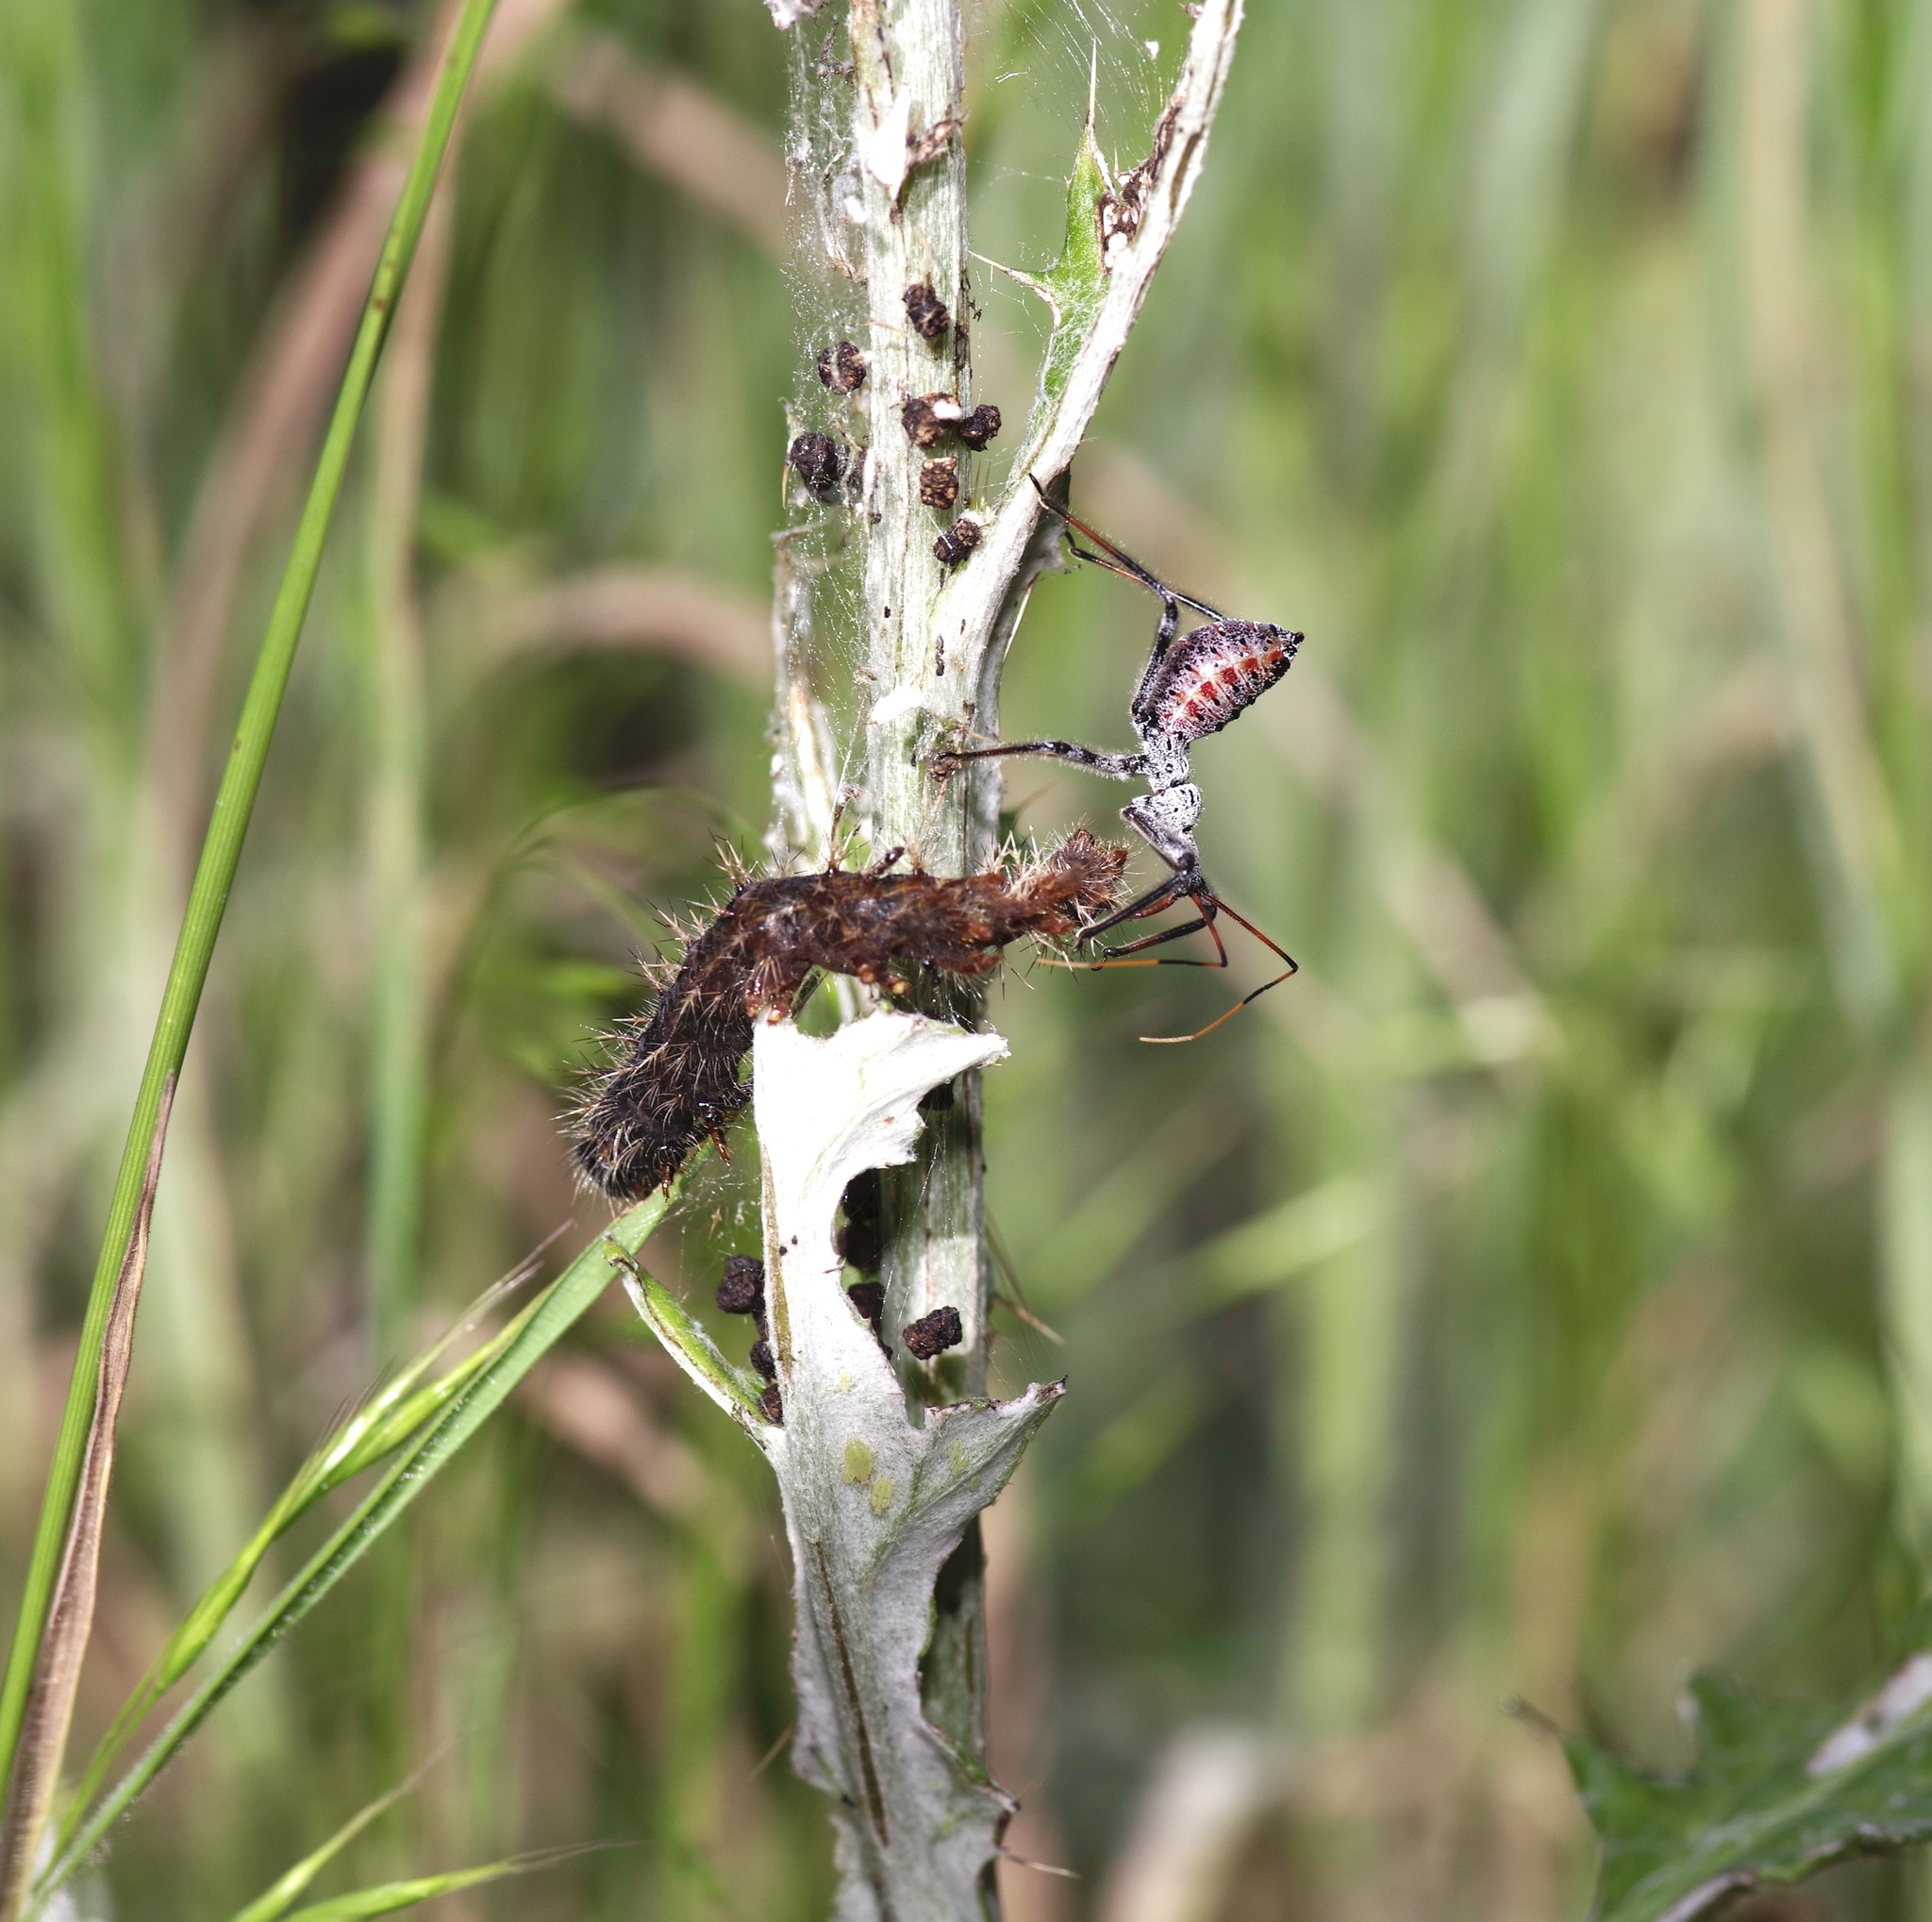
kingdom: Animalia
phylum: Arthropoda
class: Insecta
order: Hemiptera
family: Reduviidae
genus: Arilus
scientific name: Arilus cristatus
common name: North american wheel bug
